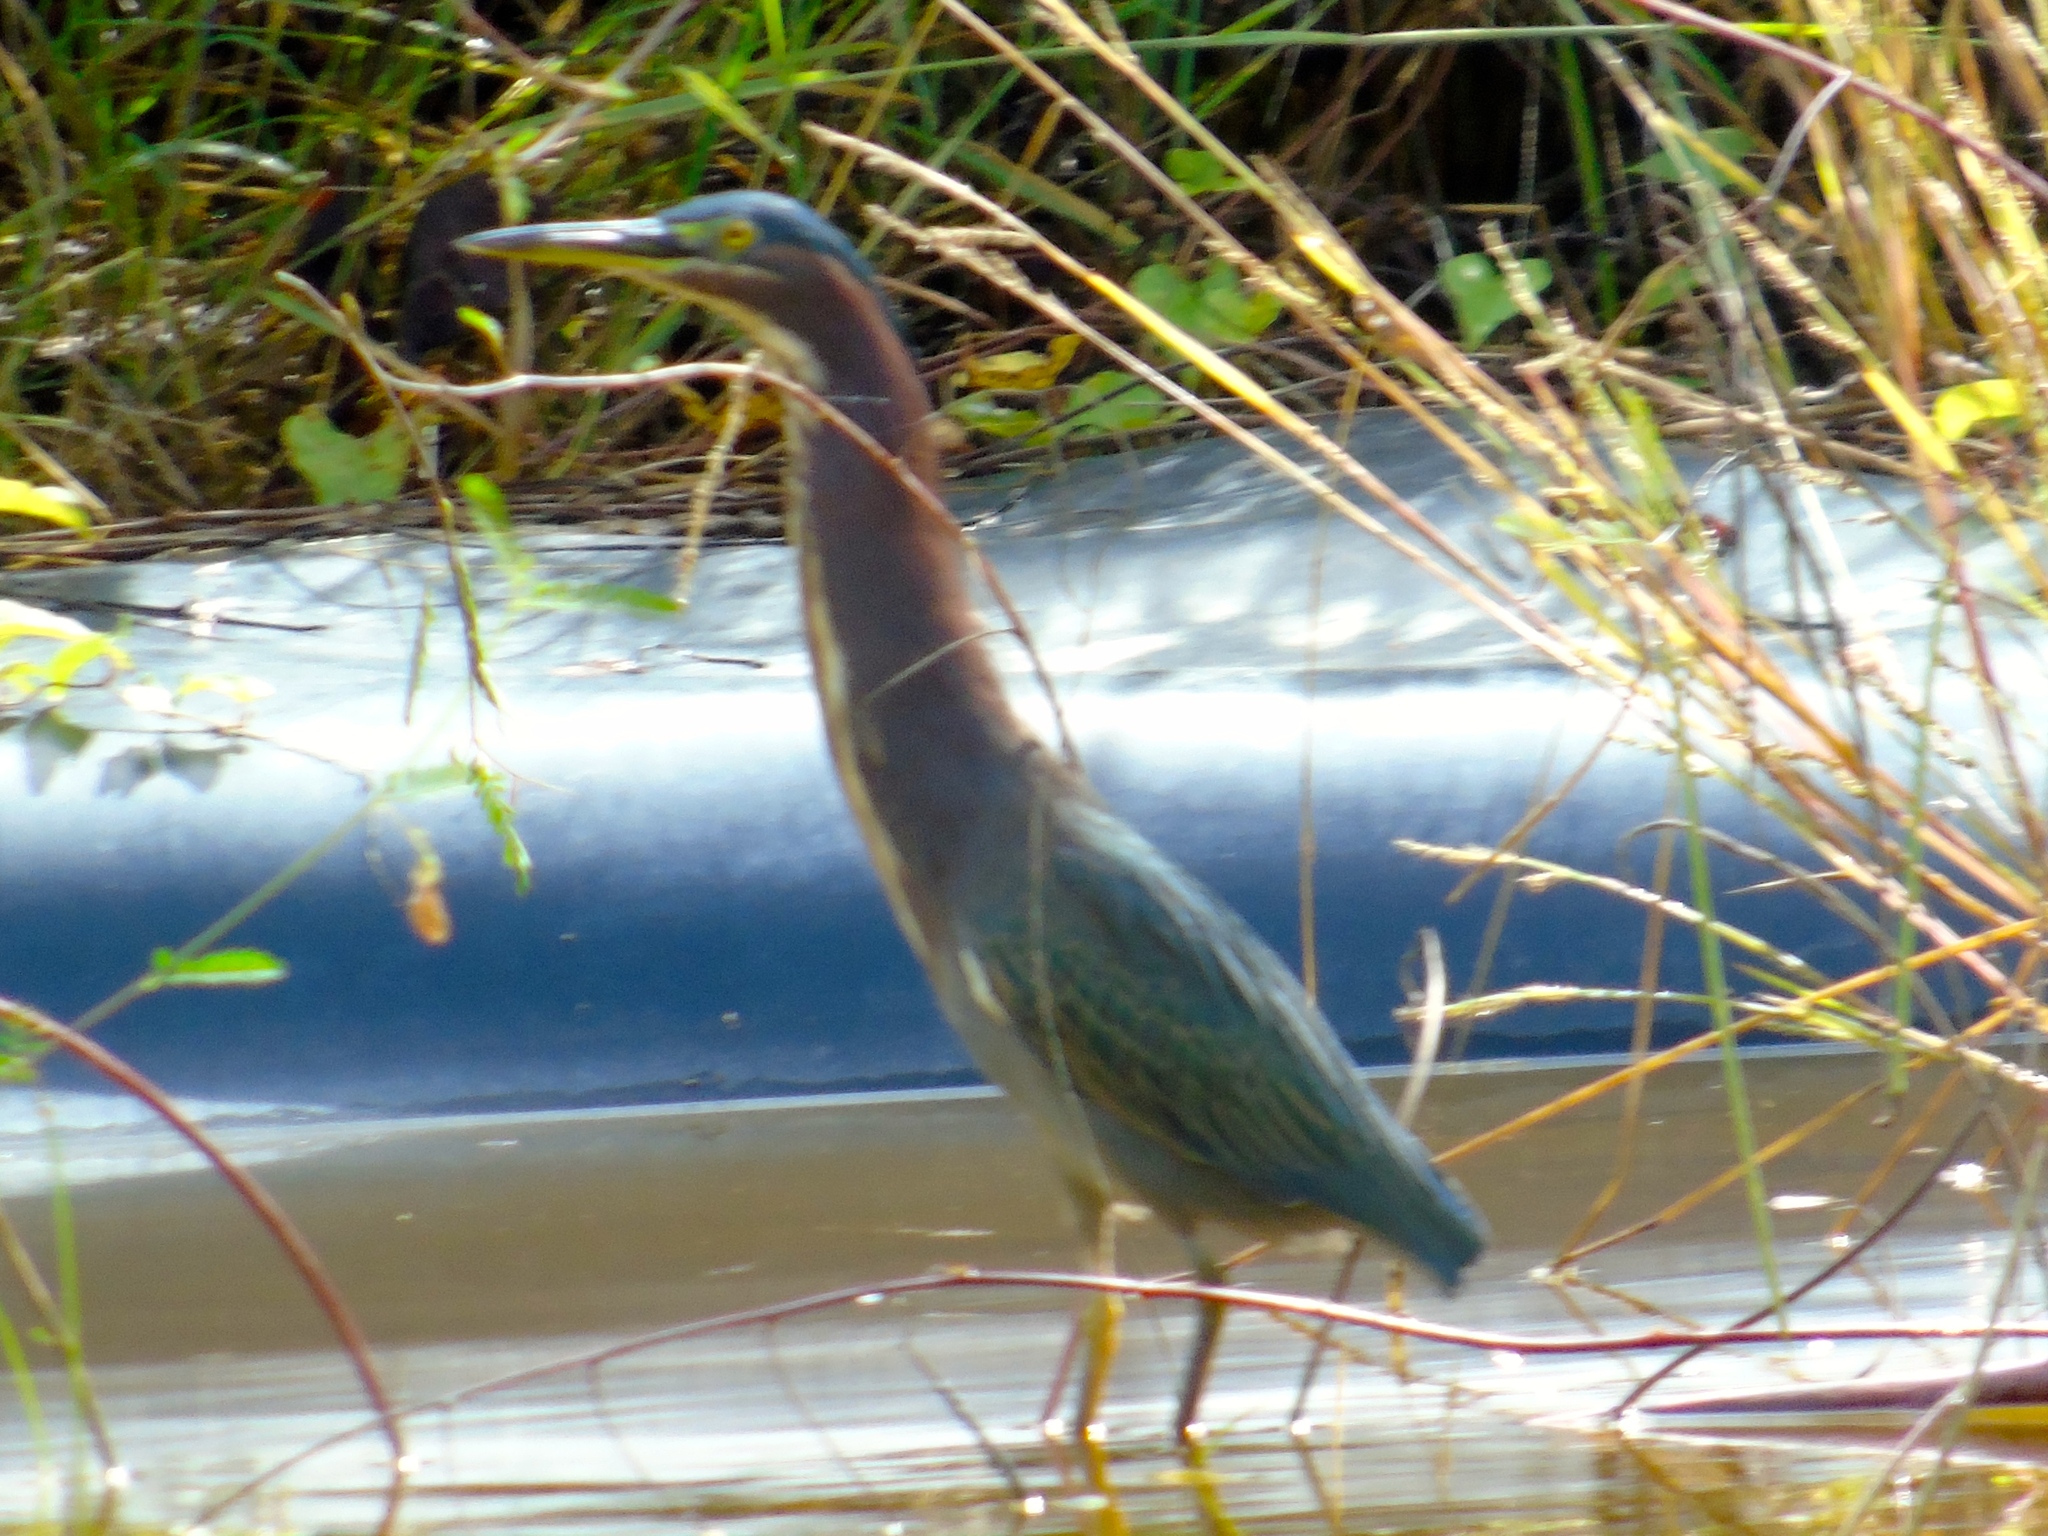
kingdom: Animalia
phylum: Chordata
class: Aves
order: Pelecaniformes
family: Ardeidae
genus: Butorides
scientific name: Butorides virescens
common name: Green heron
